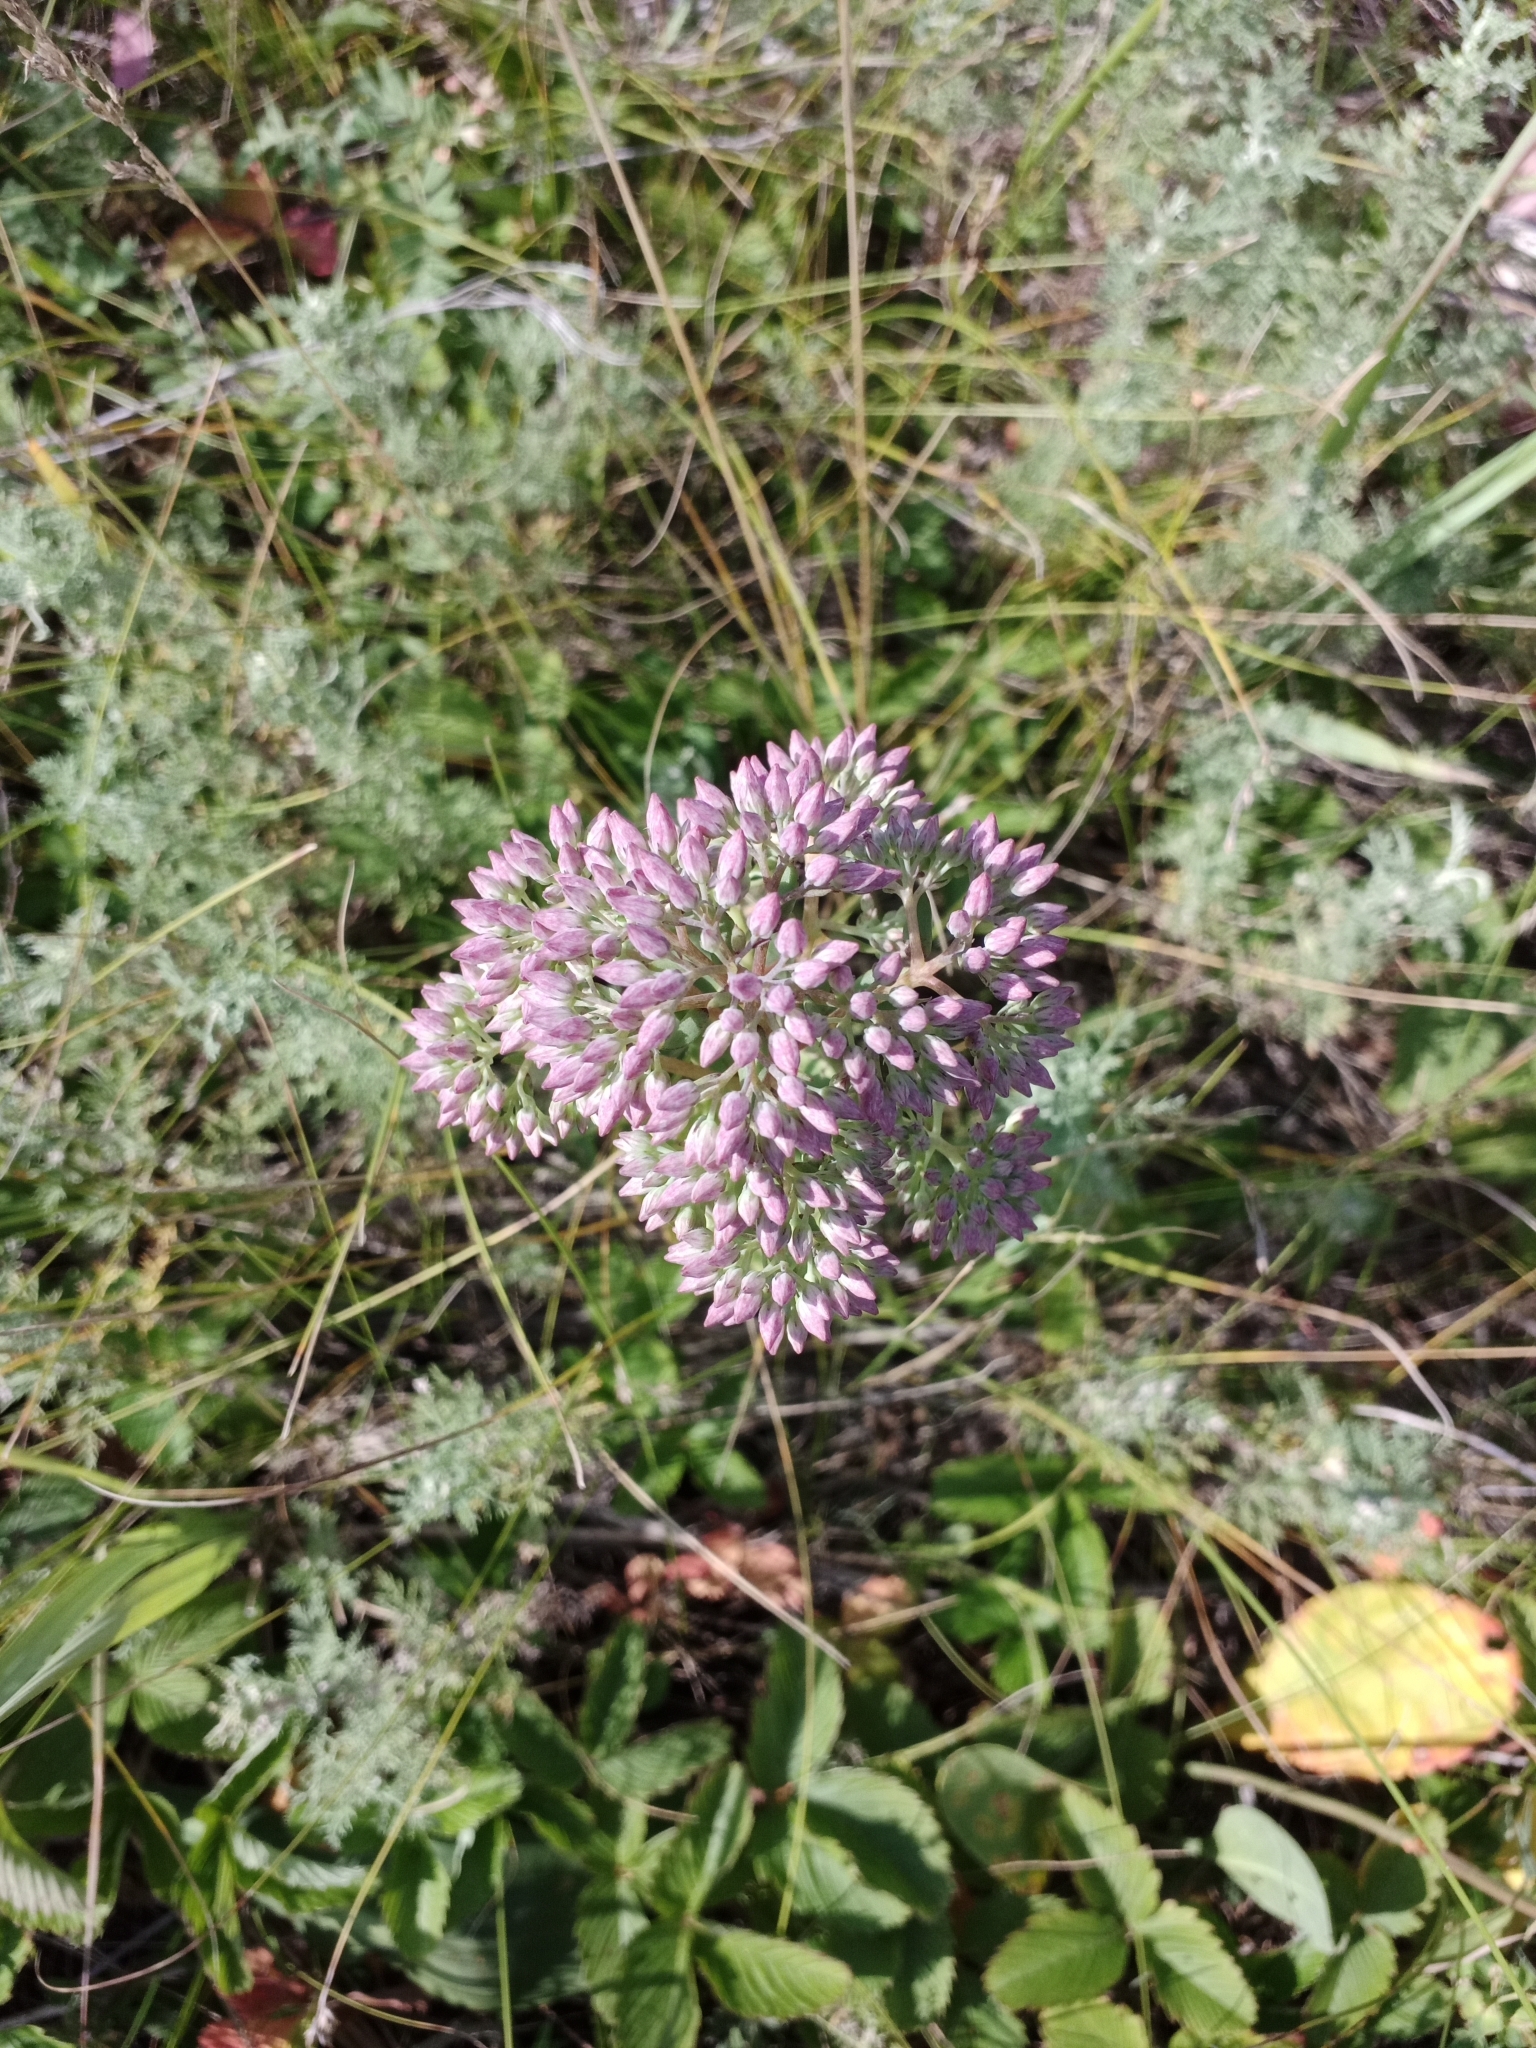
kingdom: Plantae
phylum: Tracheophyta
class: Magnoliopsida
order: Saxifragales
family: Crassulaceae
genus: Hylotelephium
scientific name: Hylotelephium telephium
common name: Live-forever
